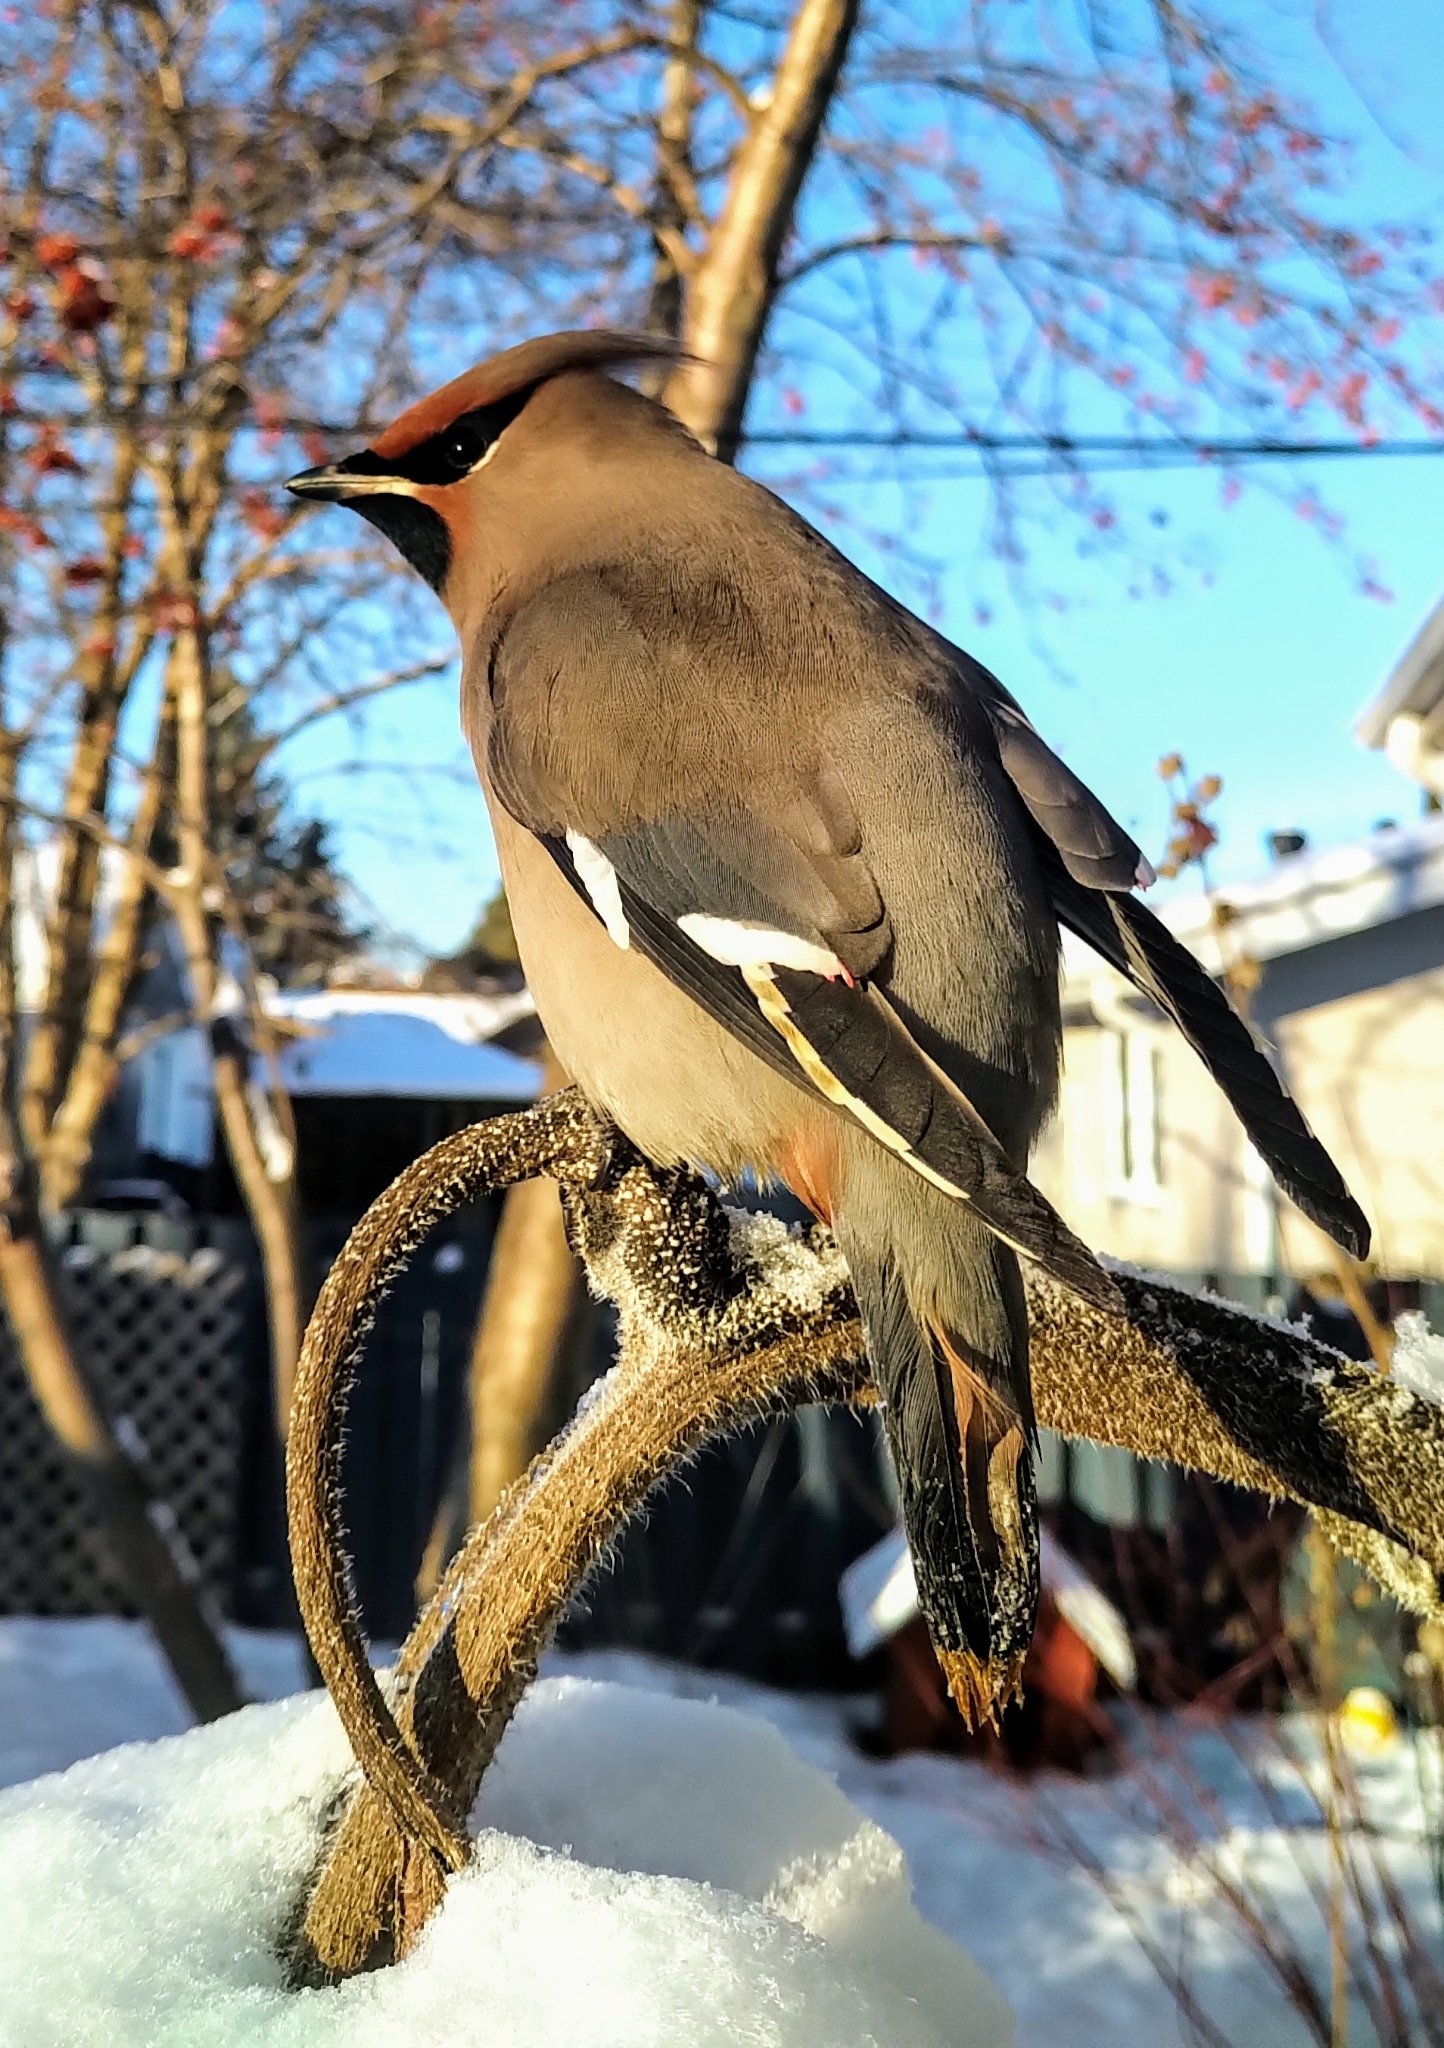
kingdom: Animalia
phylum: Chordata
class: Aves
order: Passeriformes
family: Bombycillidae
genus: Bombycilla
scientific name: Bombycilla garrulus
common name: Bohemian waxwing
